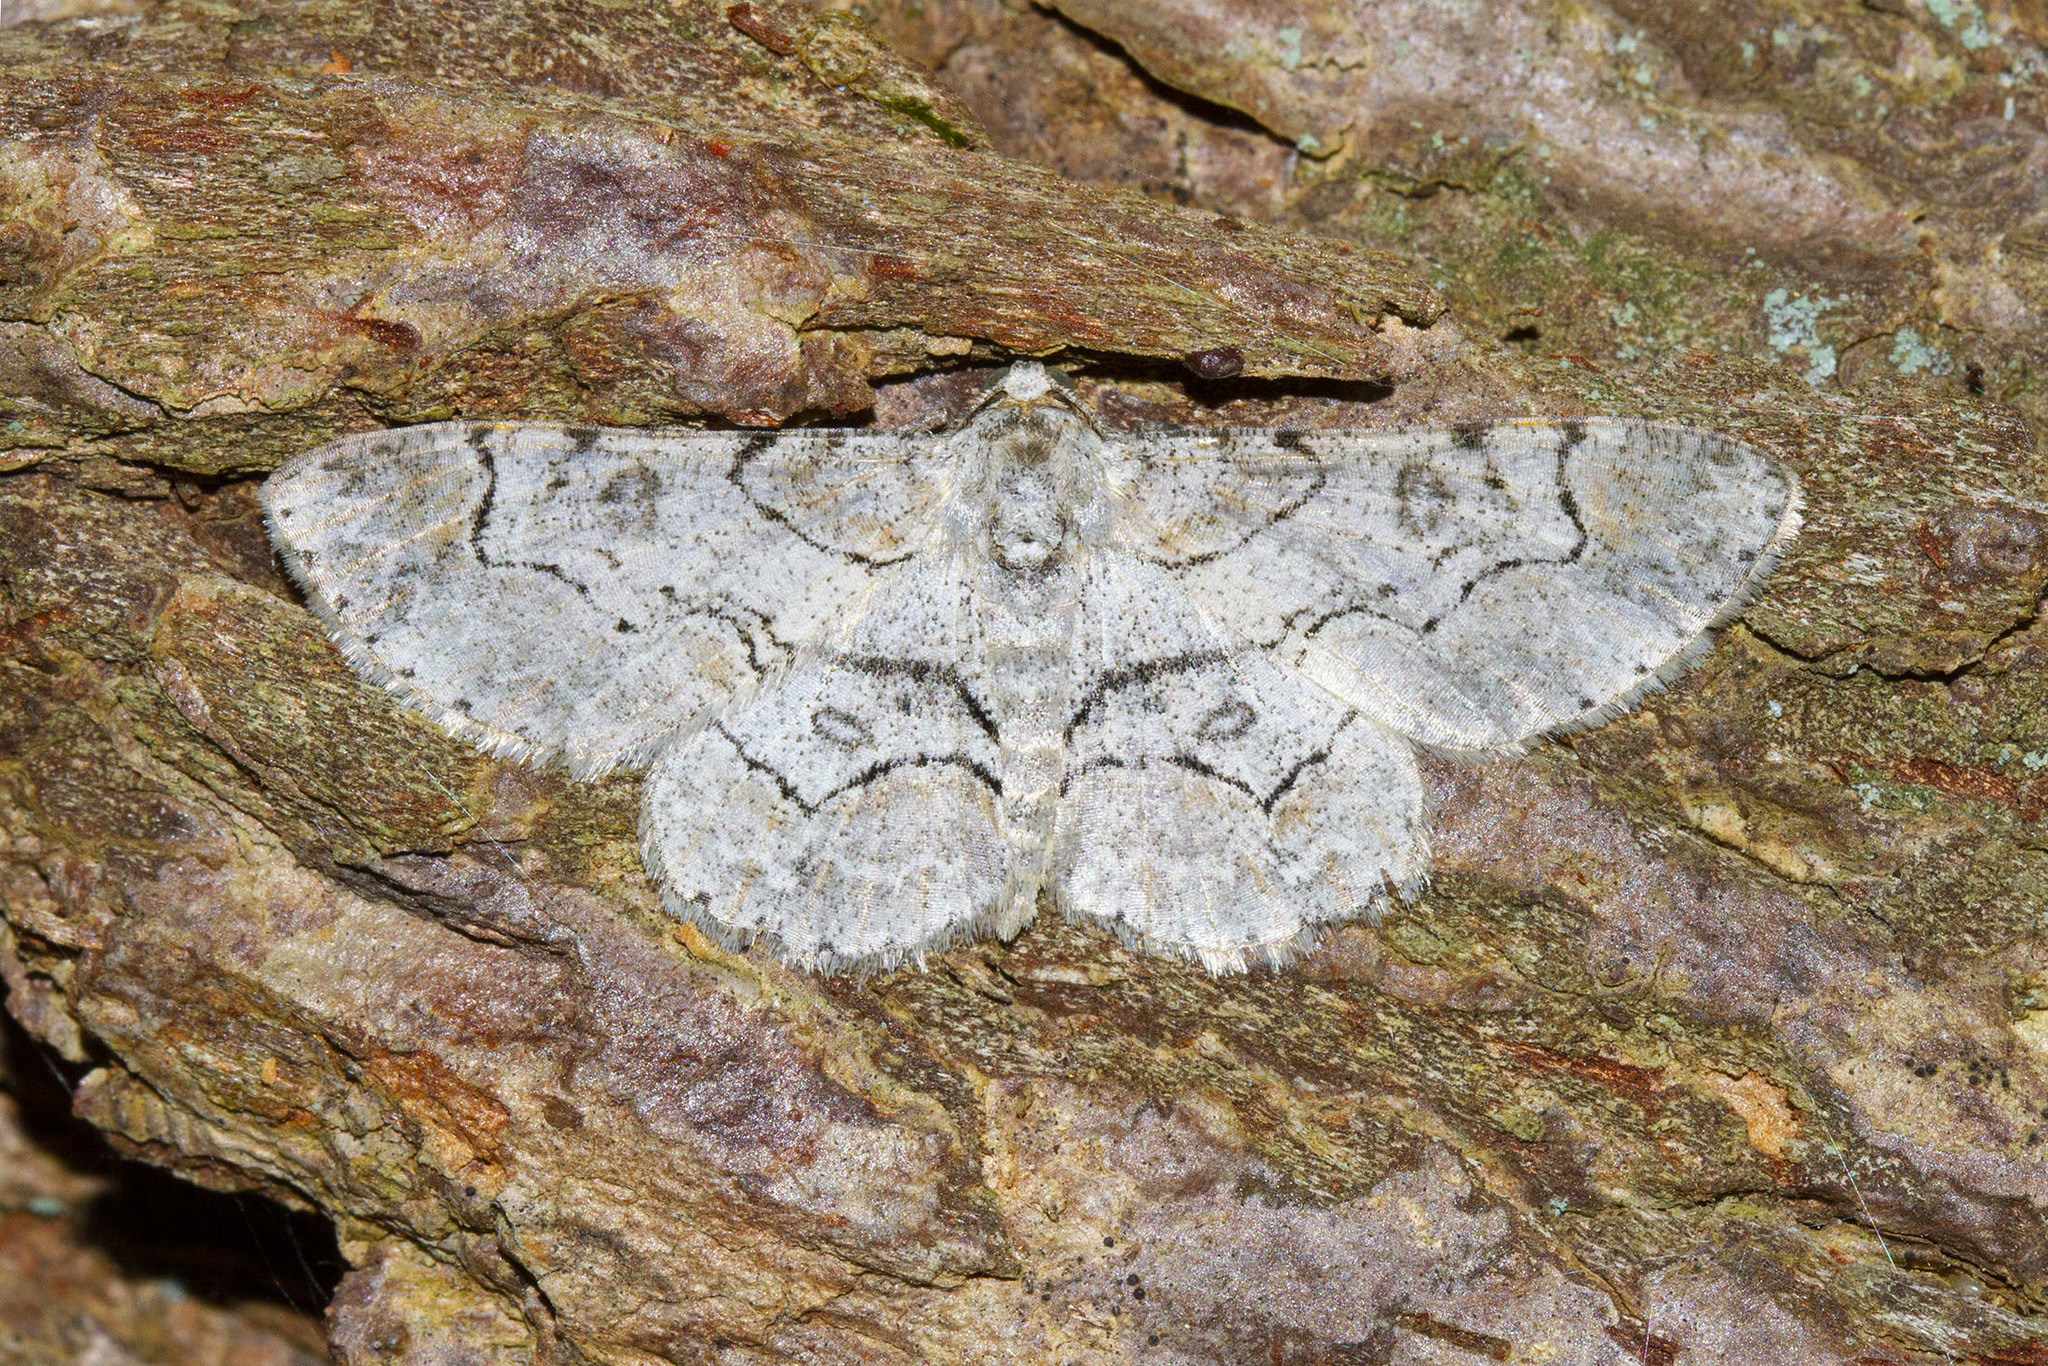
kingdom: Animalia
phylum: Arthropoda
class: Insecta
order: Lepidoptera
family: Geometridae
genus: Iridopsis
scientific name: Iridopsis larvaria
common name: Bent-line gray
